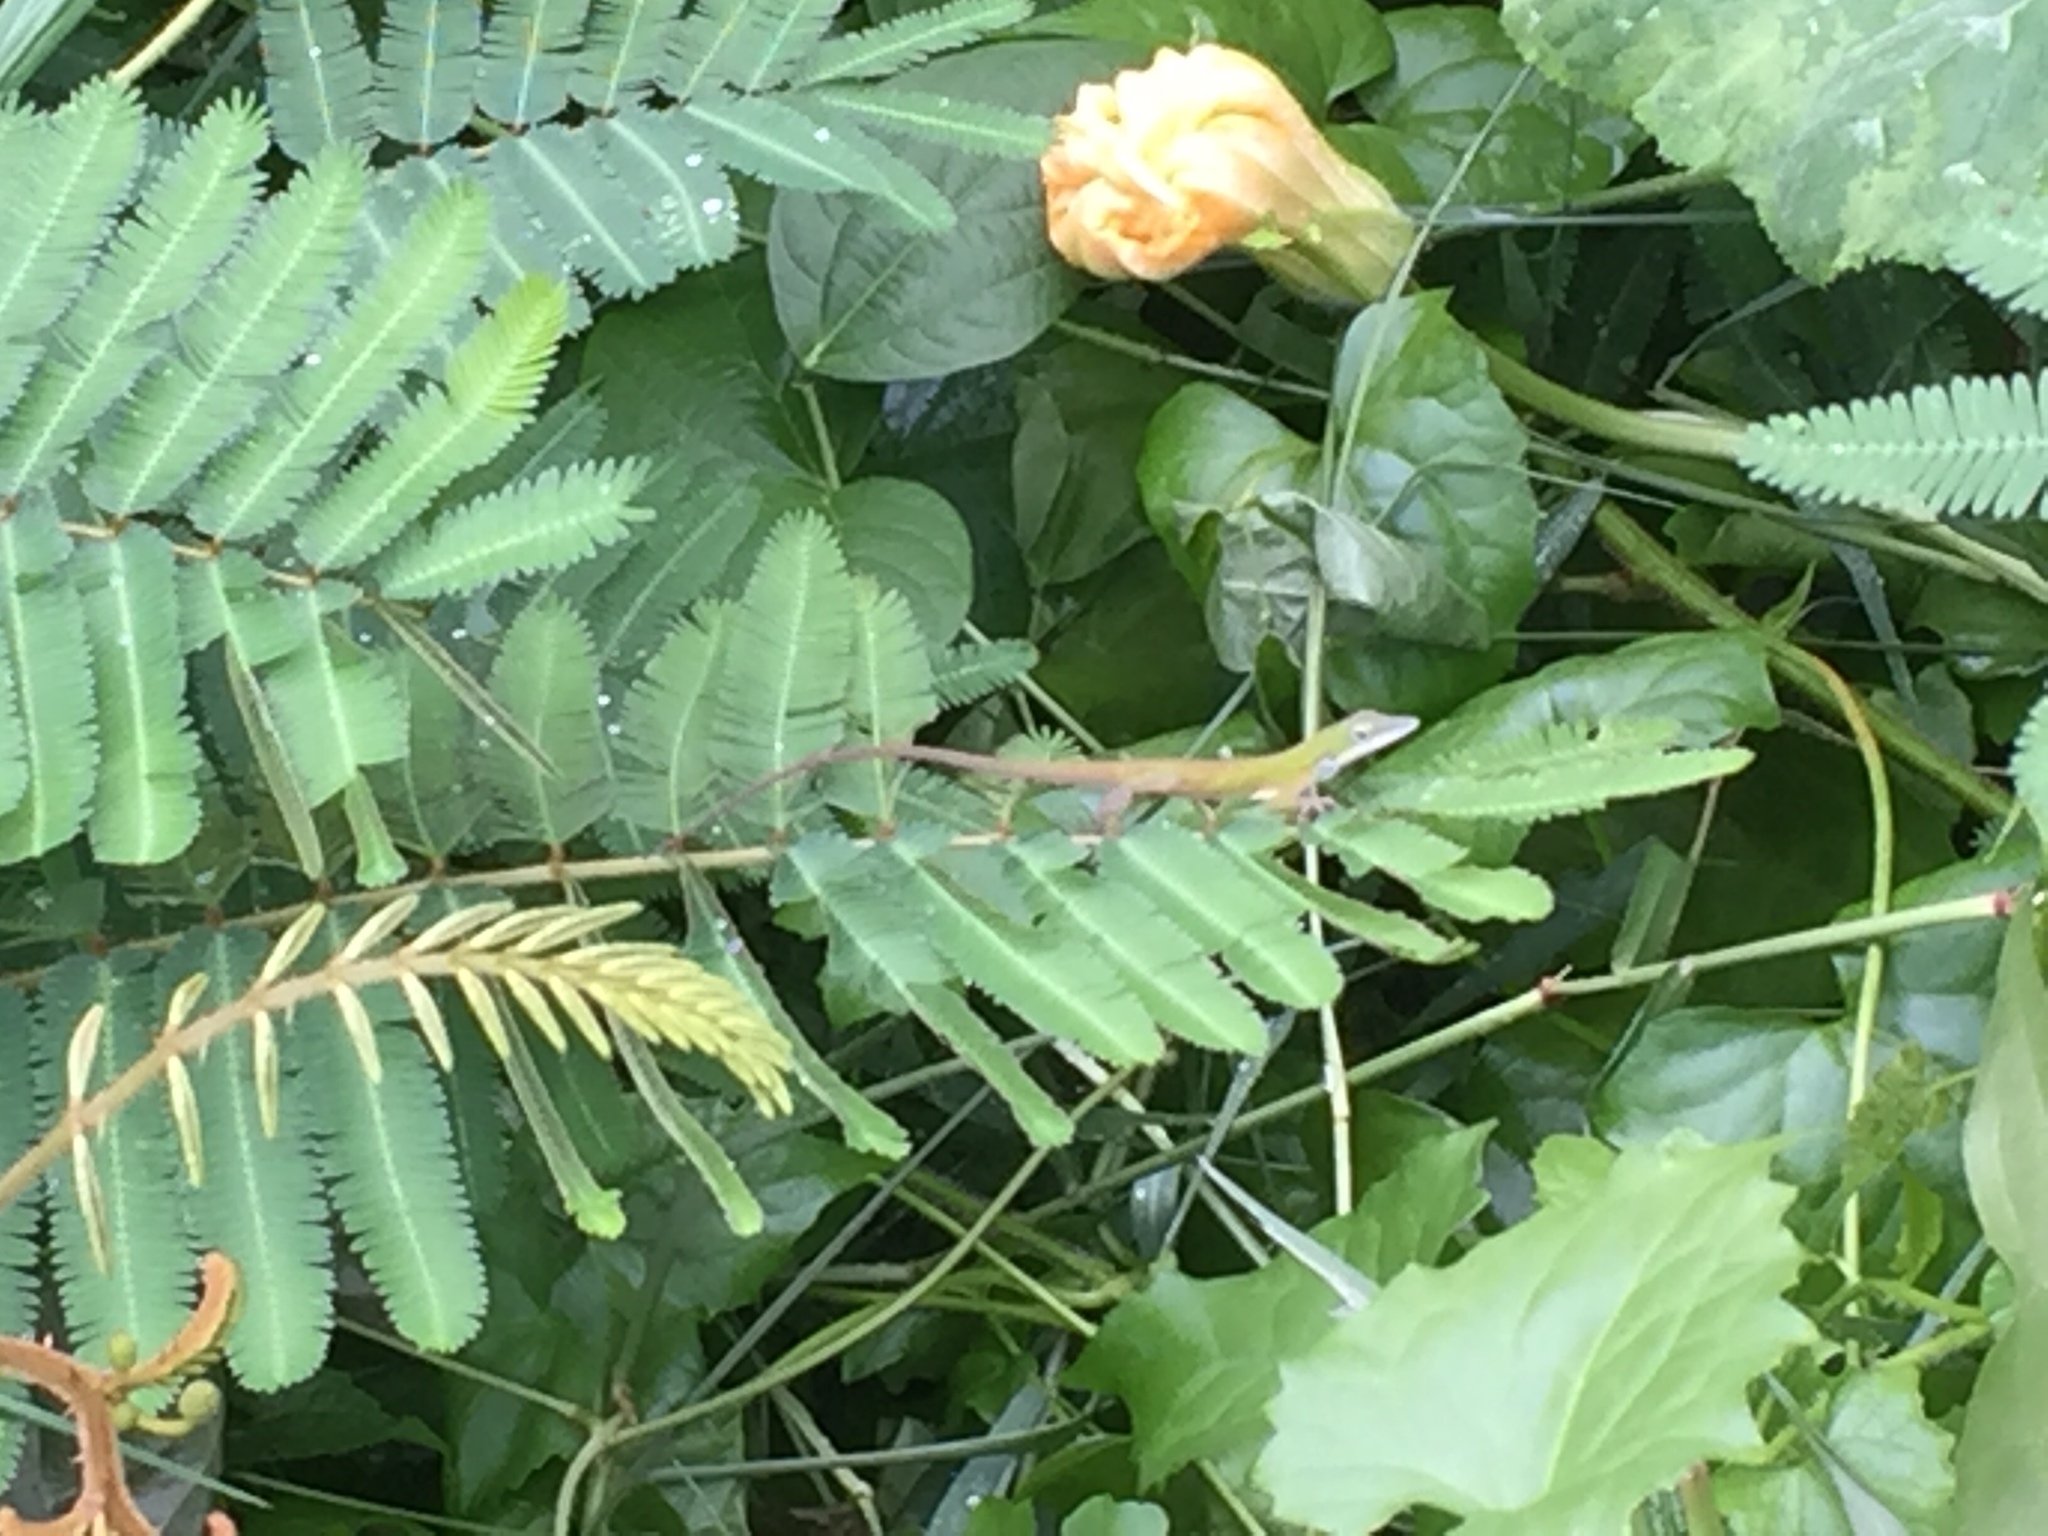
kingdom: Animalia
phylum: Chordata
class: Squamata
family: Dactyloidae
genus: Anolis
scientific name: Anolis porcatus
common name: Cuban green anole
